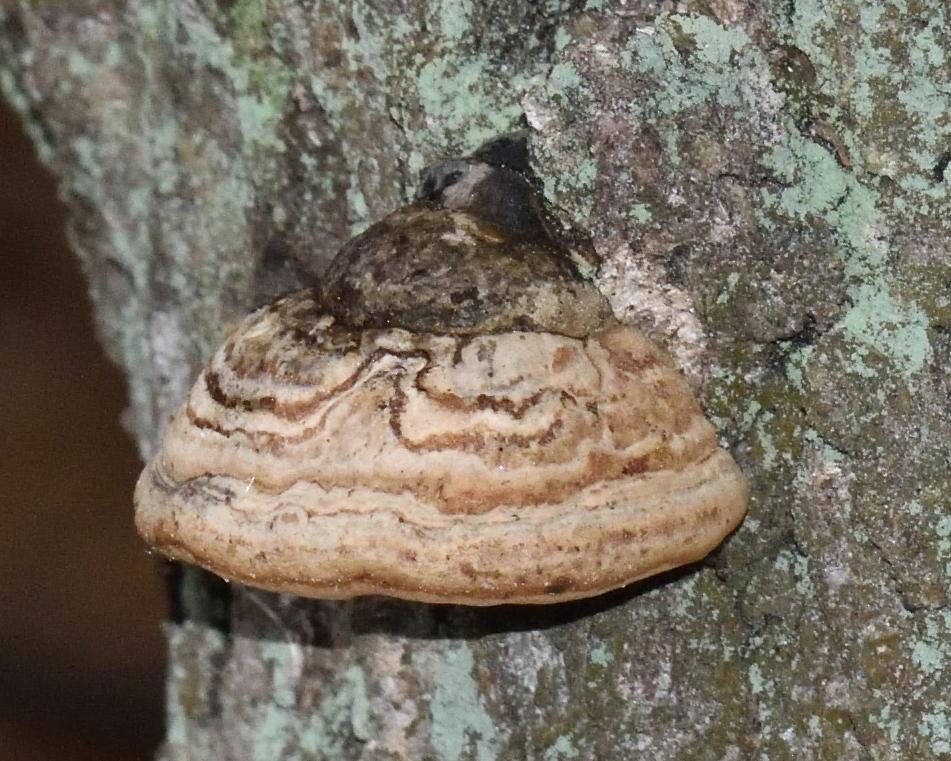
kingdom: Fungi
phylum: Basidiomycota
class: Agaricomycetes
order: Polyporales
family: Polyporaceae
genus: Fomes
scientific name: Fomes fomentarius
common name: Hoof fungus
